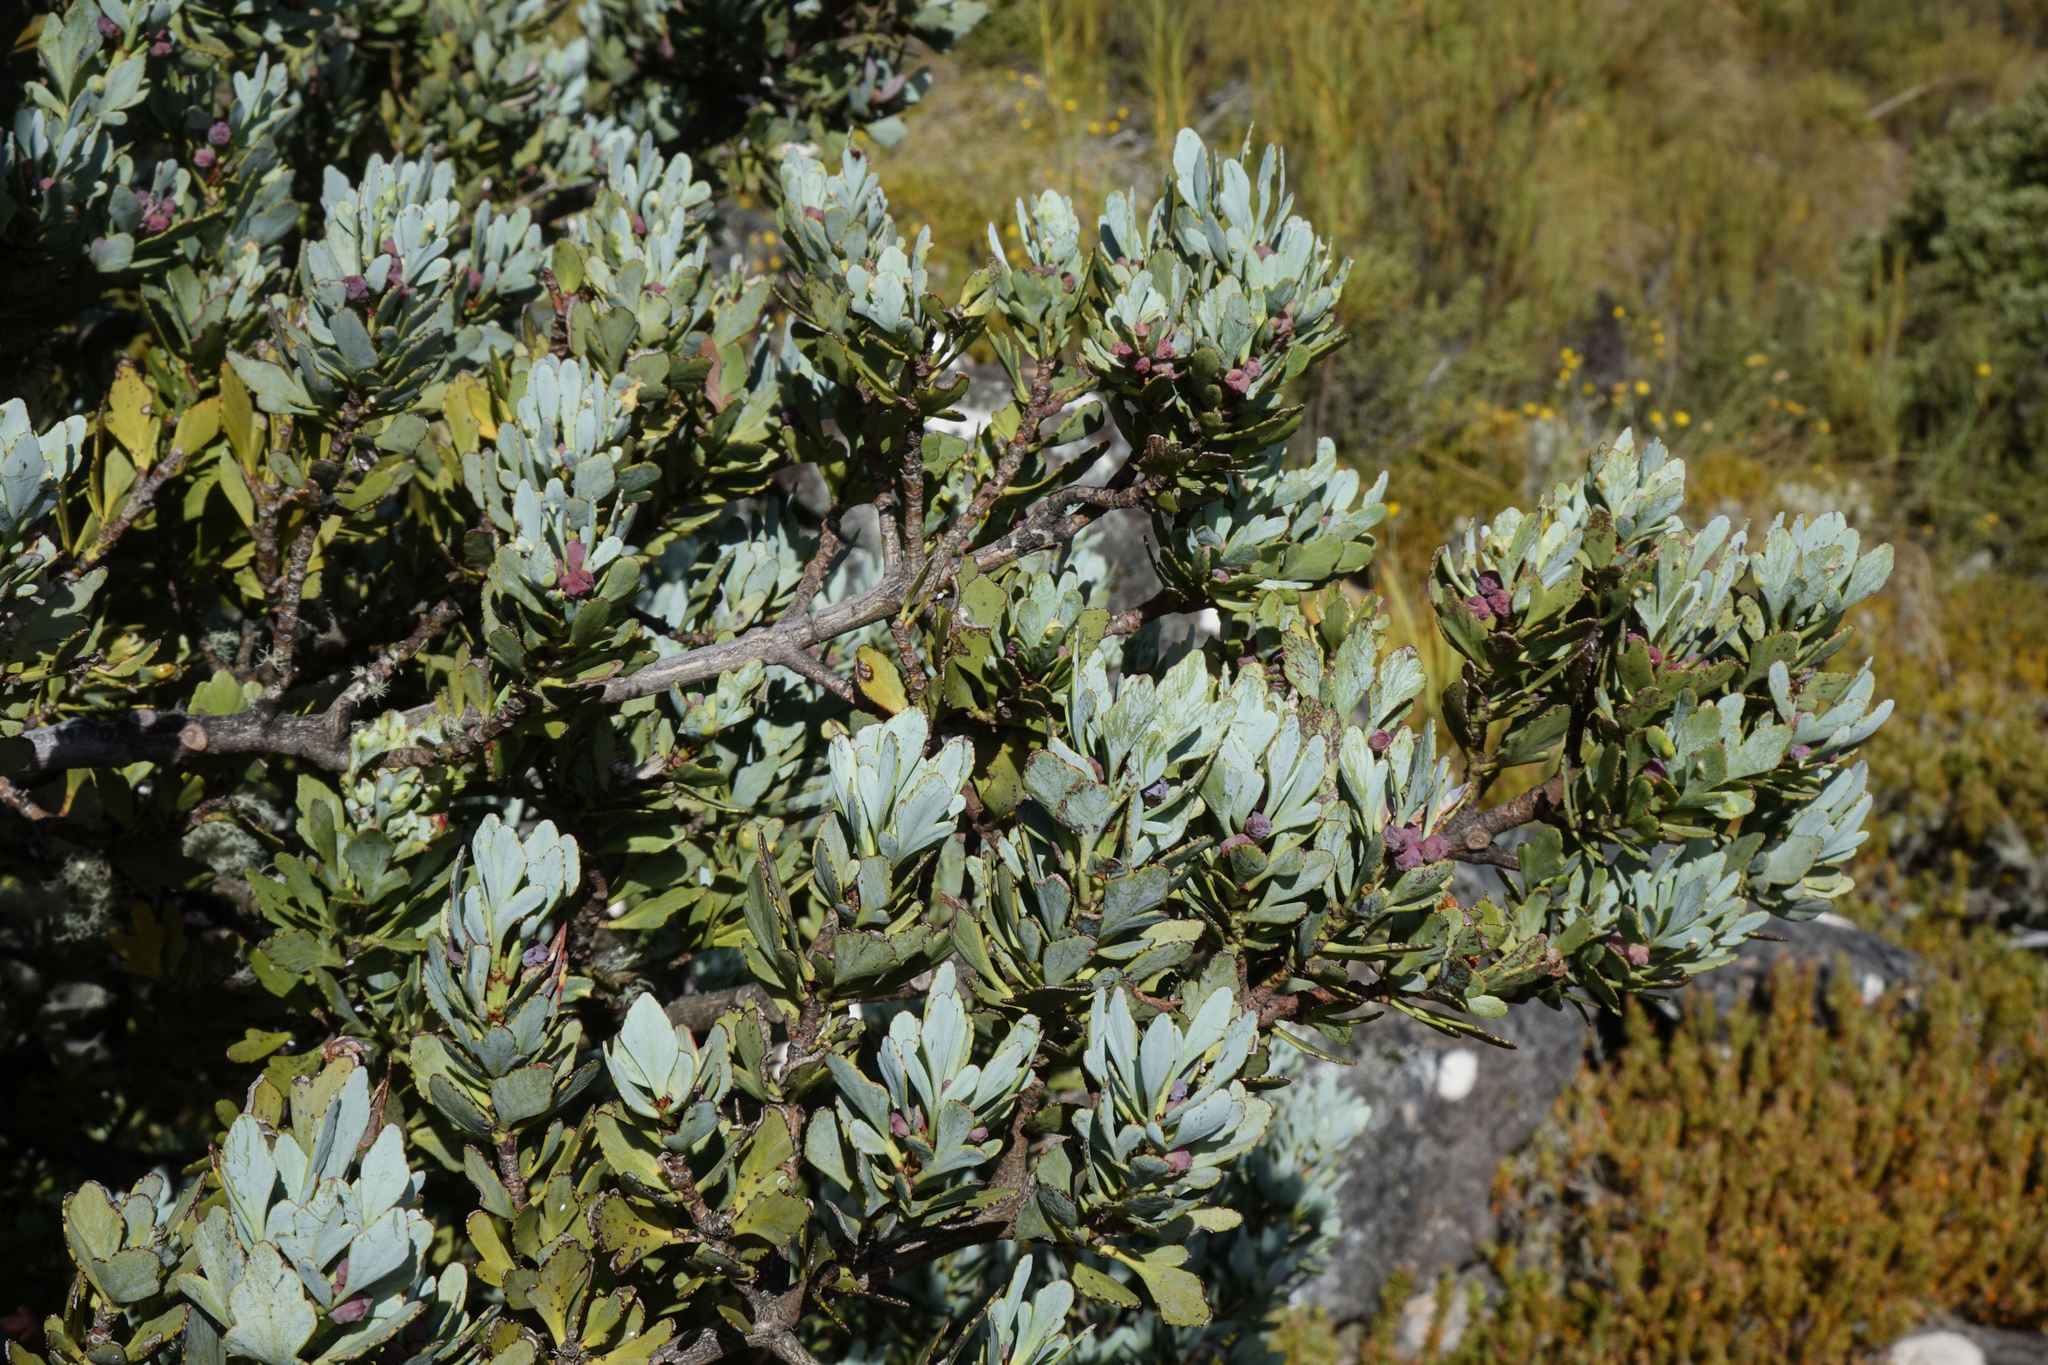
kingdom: Plantae
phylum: Tracheophyta
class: Pinopsida
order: Pinales
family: Phyllocladaceae
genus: Phyllocladus
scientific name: Phyllocladus trichomanoides
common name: Celery pine
